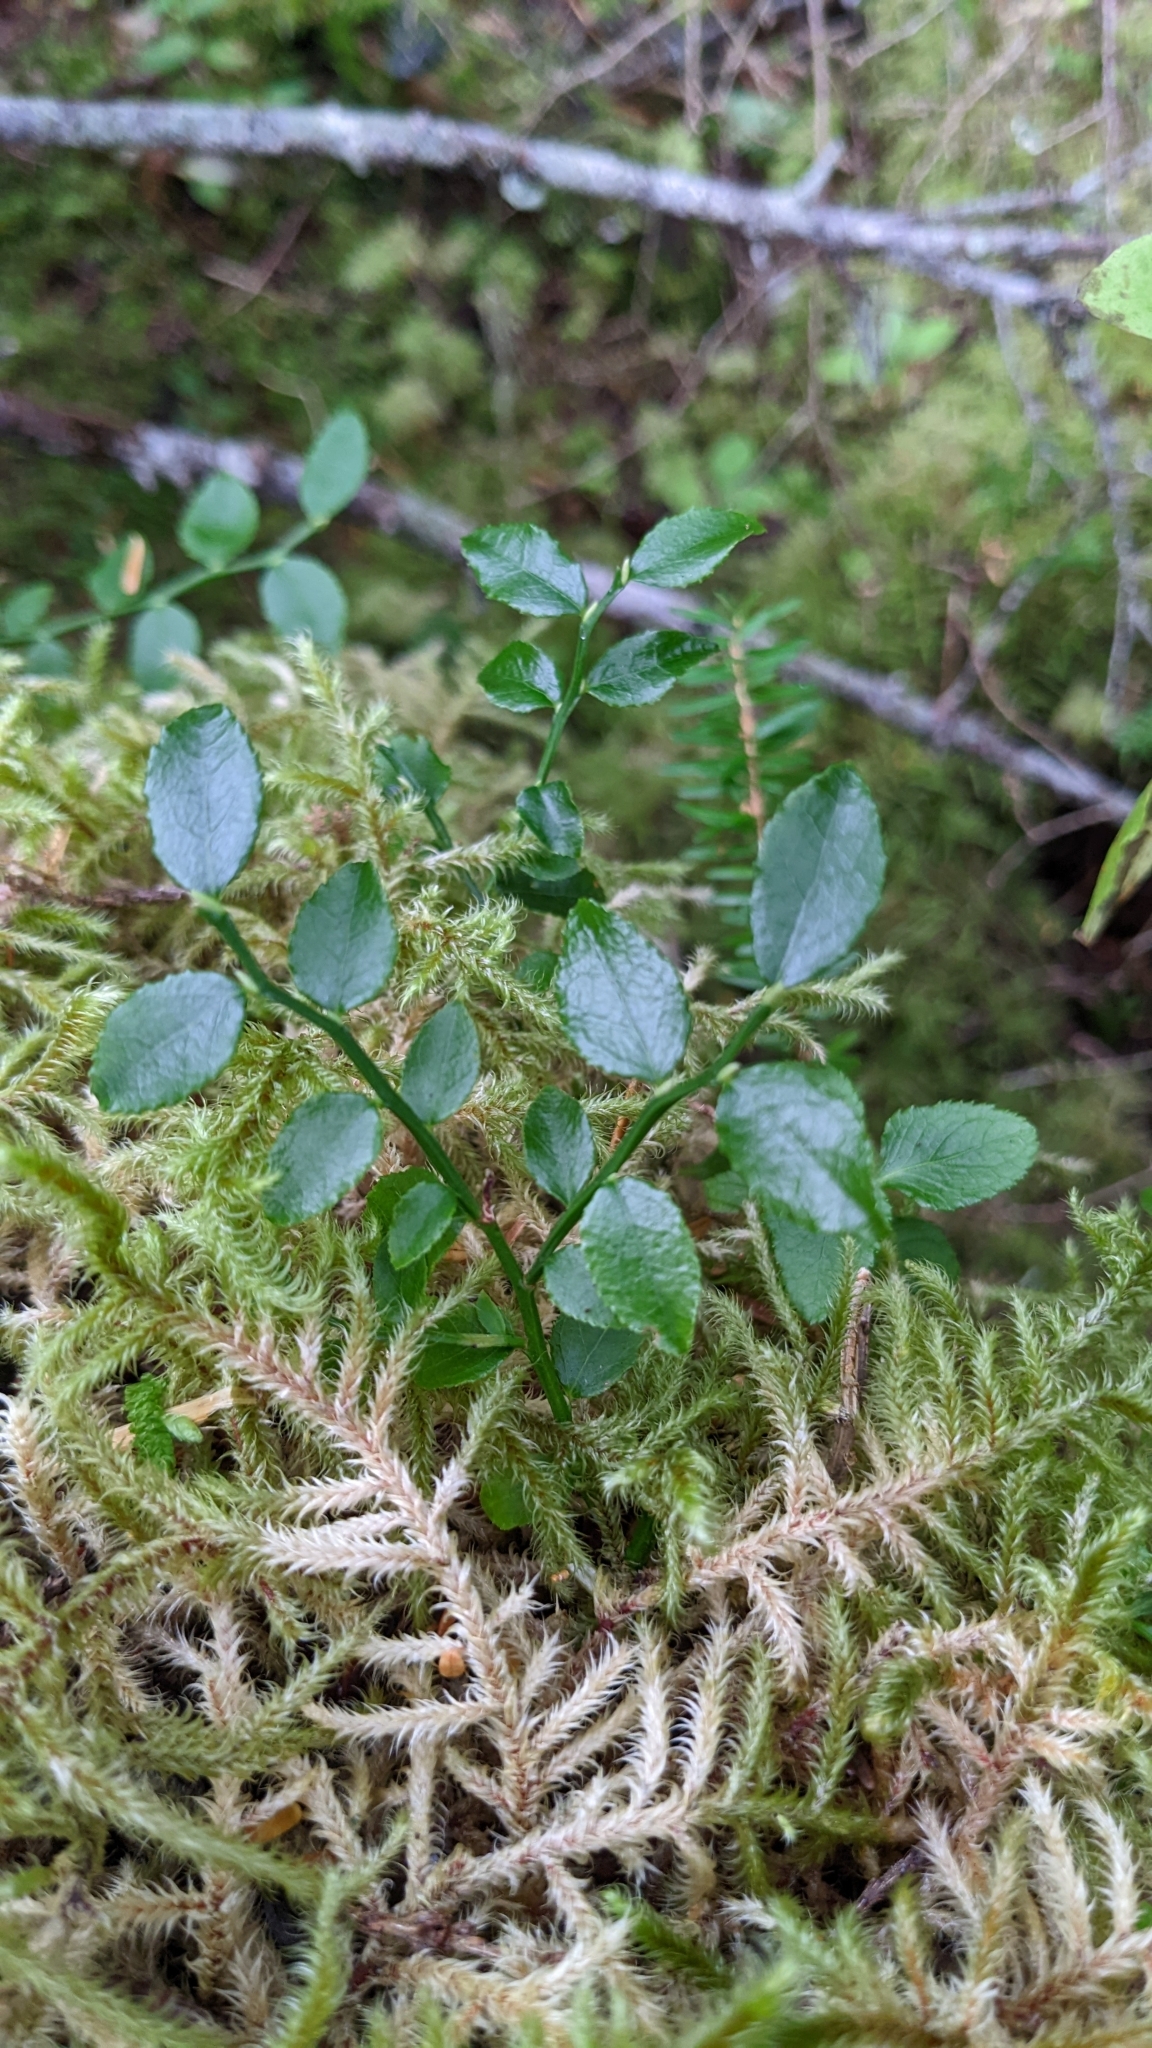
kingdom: Plantae
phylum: Tracheophyta
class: Magnoliopsida
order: Ericales
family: Ericaceae
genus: Vaccinium
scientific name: Vaccinium parvifolium
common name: Red-huckleberry
